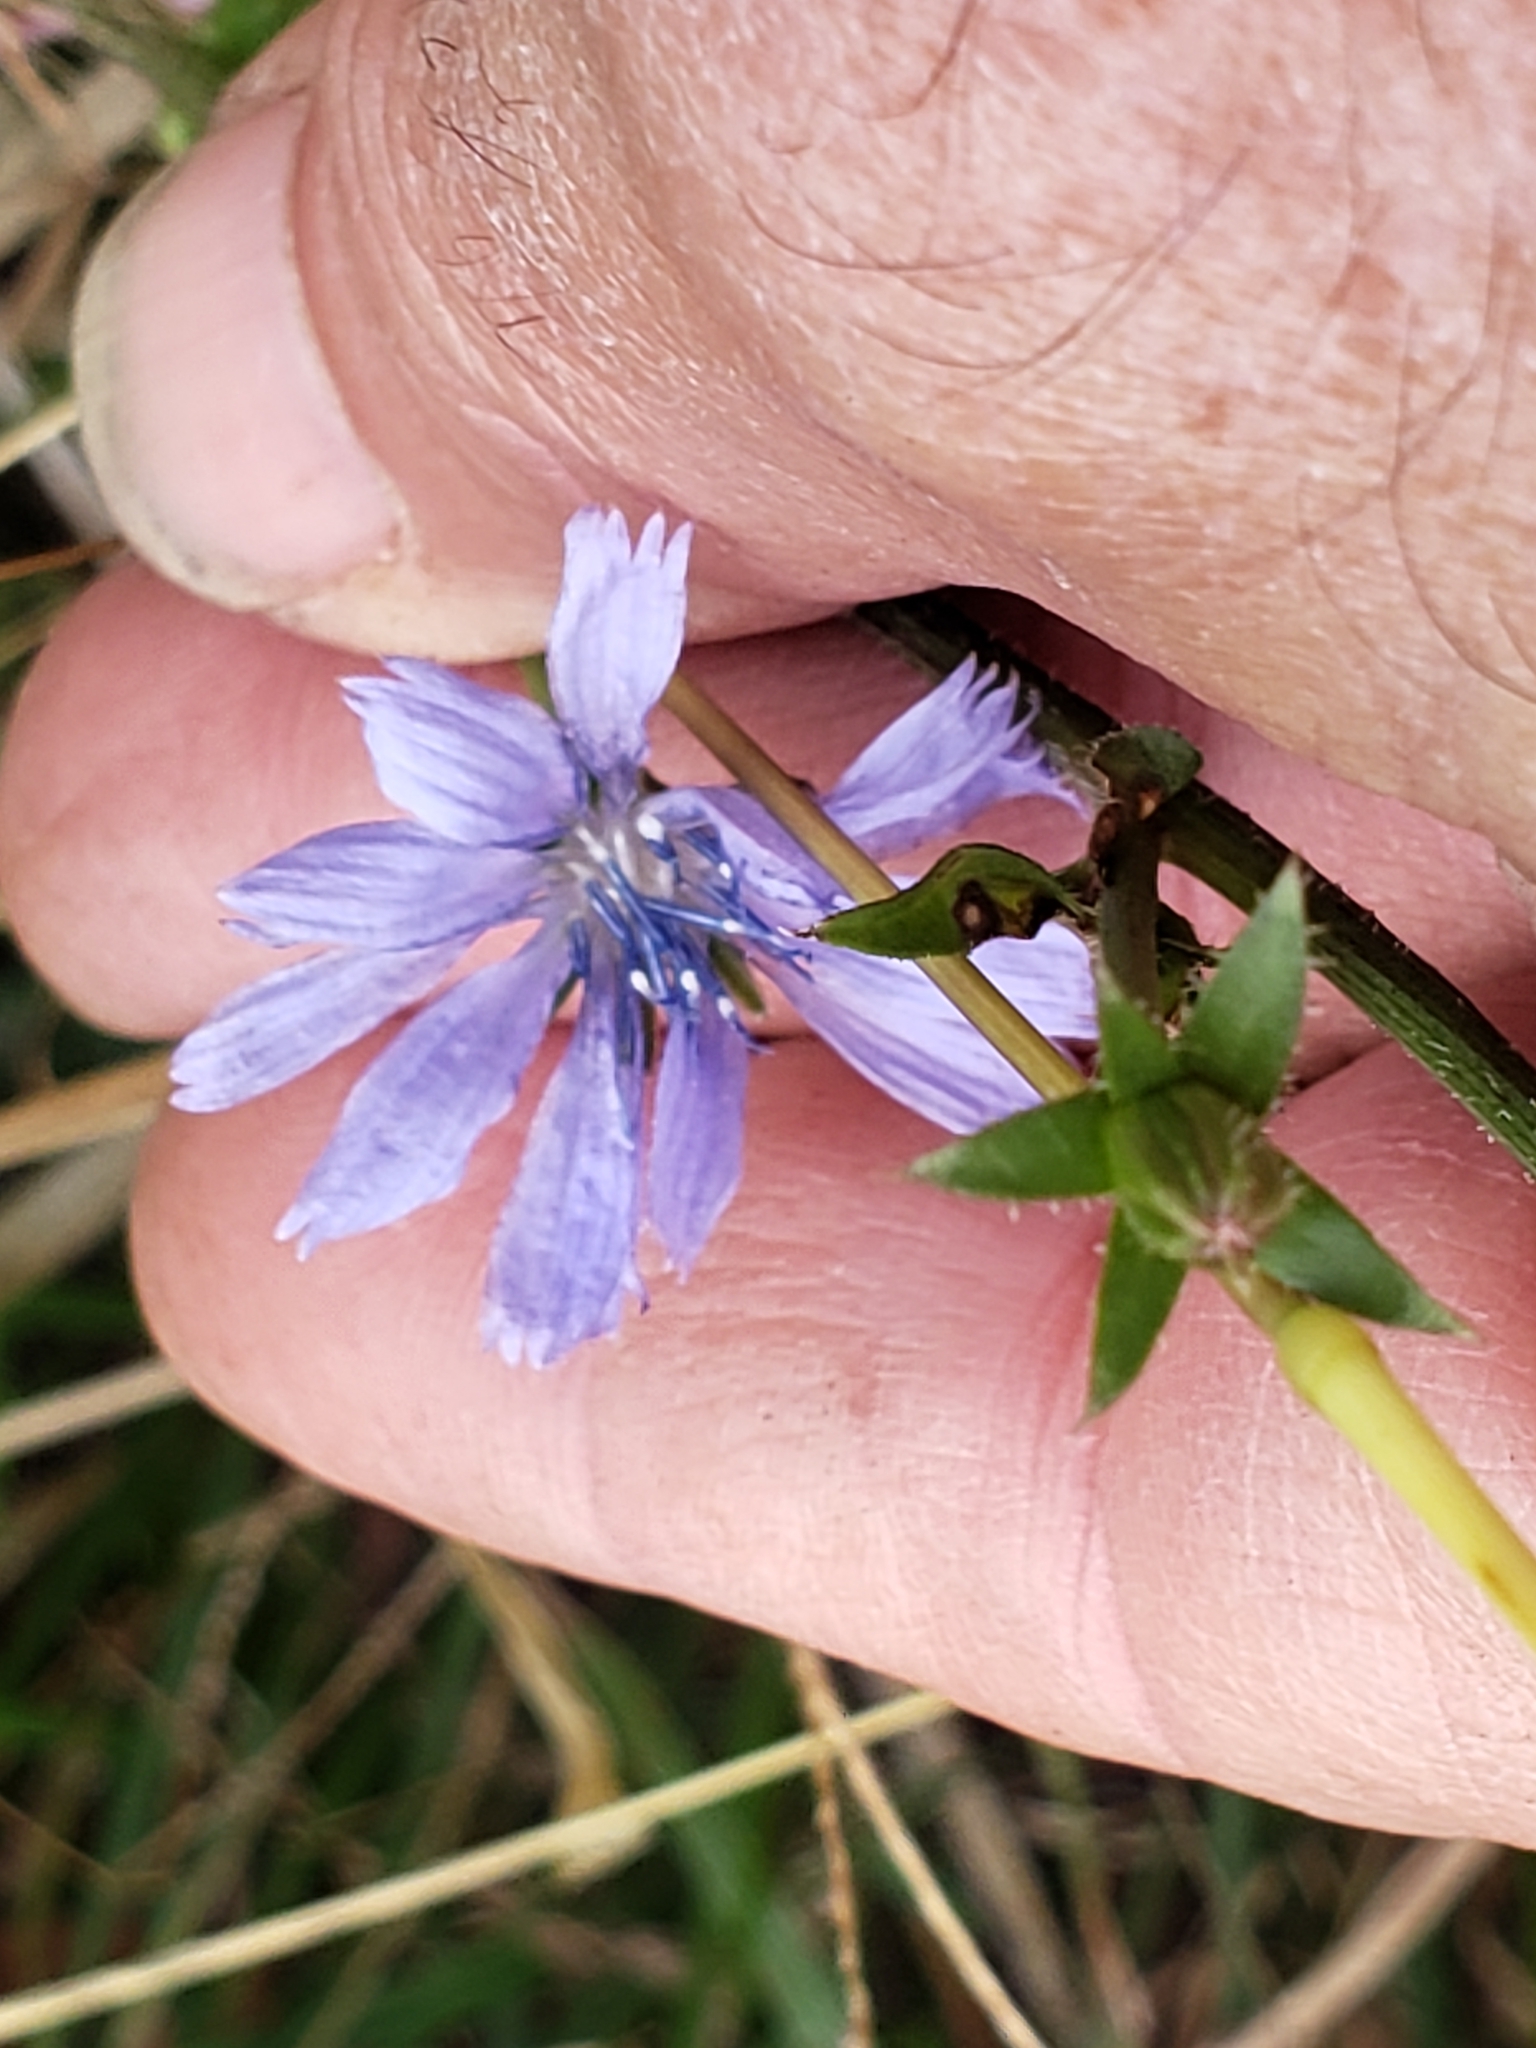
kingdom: Plantae
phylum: Tracheophyta
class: Magnoliopsida
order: Asterales
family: Asteraceae
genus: Cichorium
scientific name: Cichorium intybus
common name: Chicory
